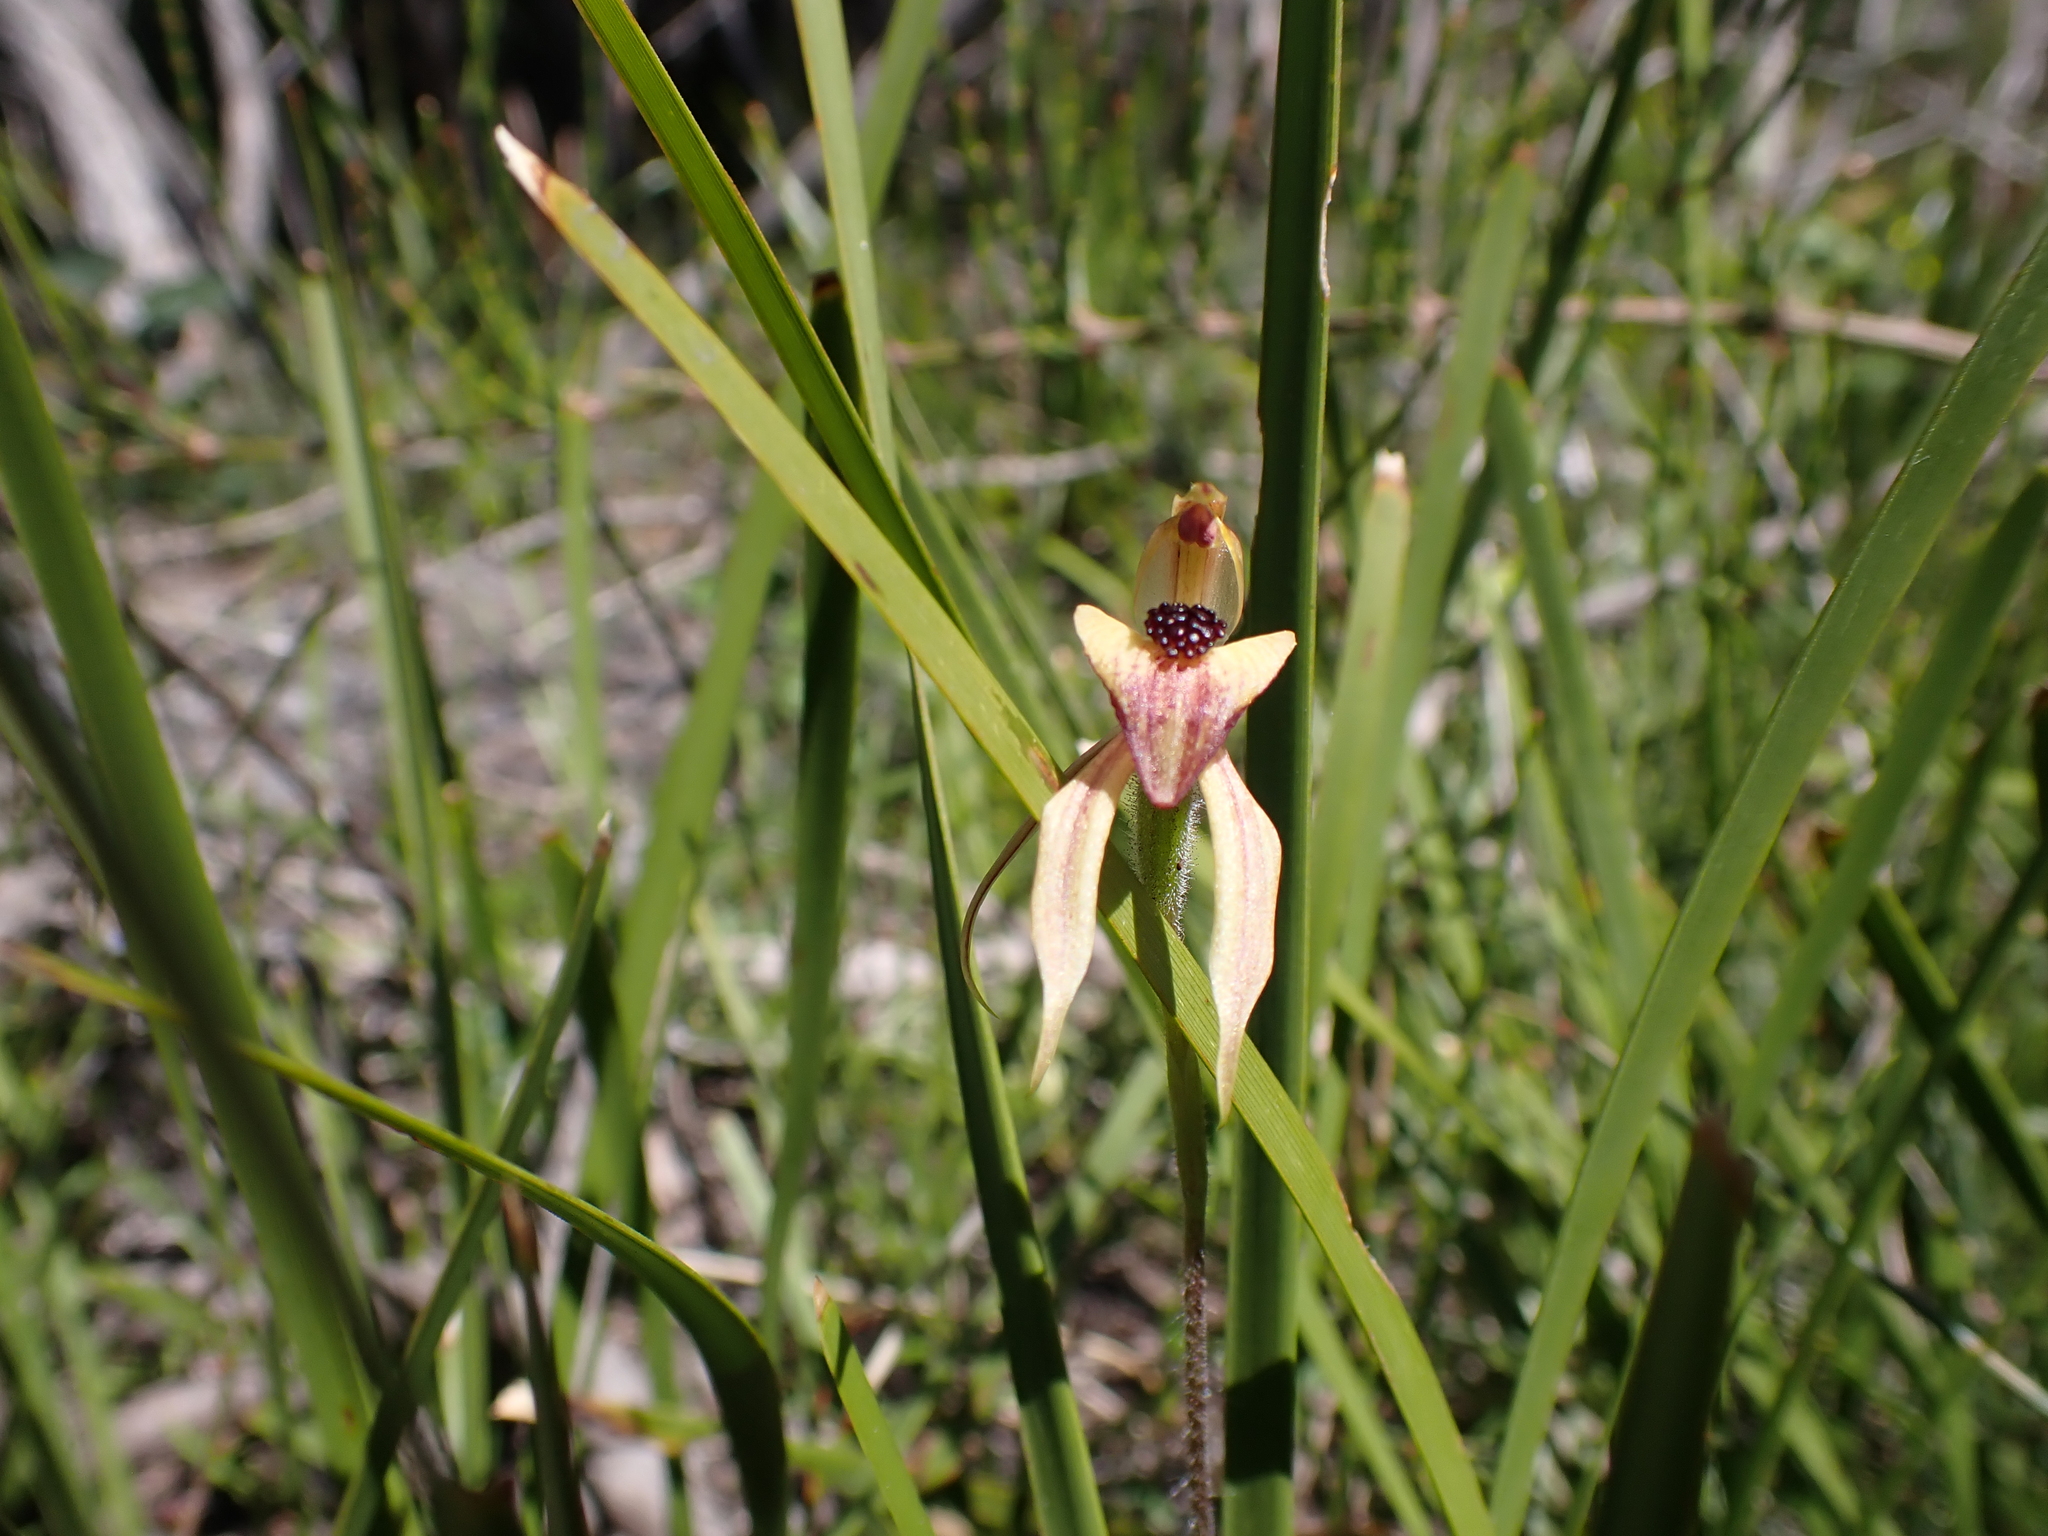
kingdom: Plantae
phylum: Tracheophyta
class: Liliopsida
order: Asparagales
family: Orchidaceae
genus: Caladenia
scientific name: Caladenia tessellata
